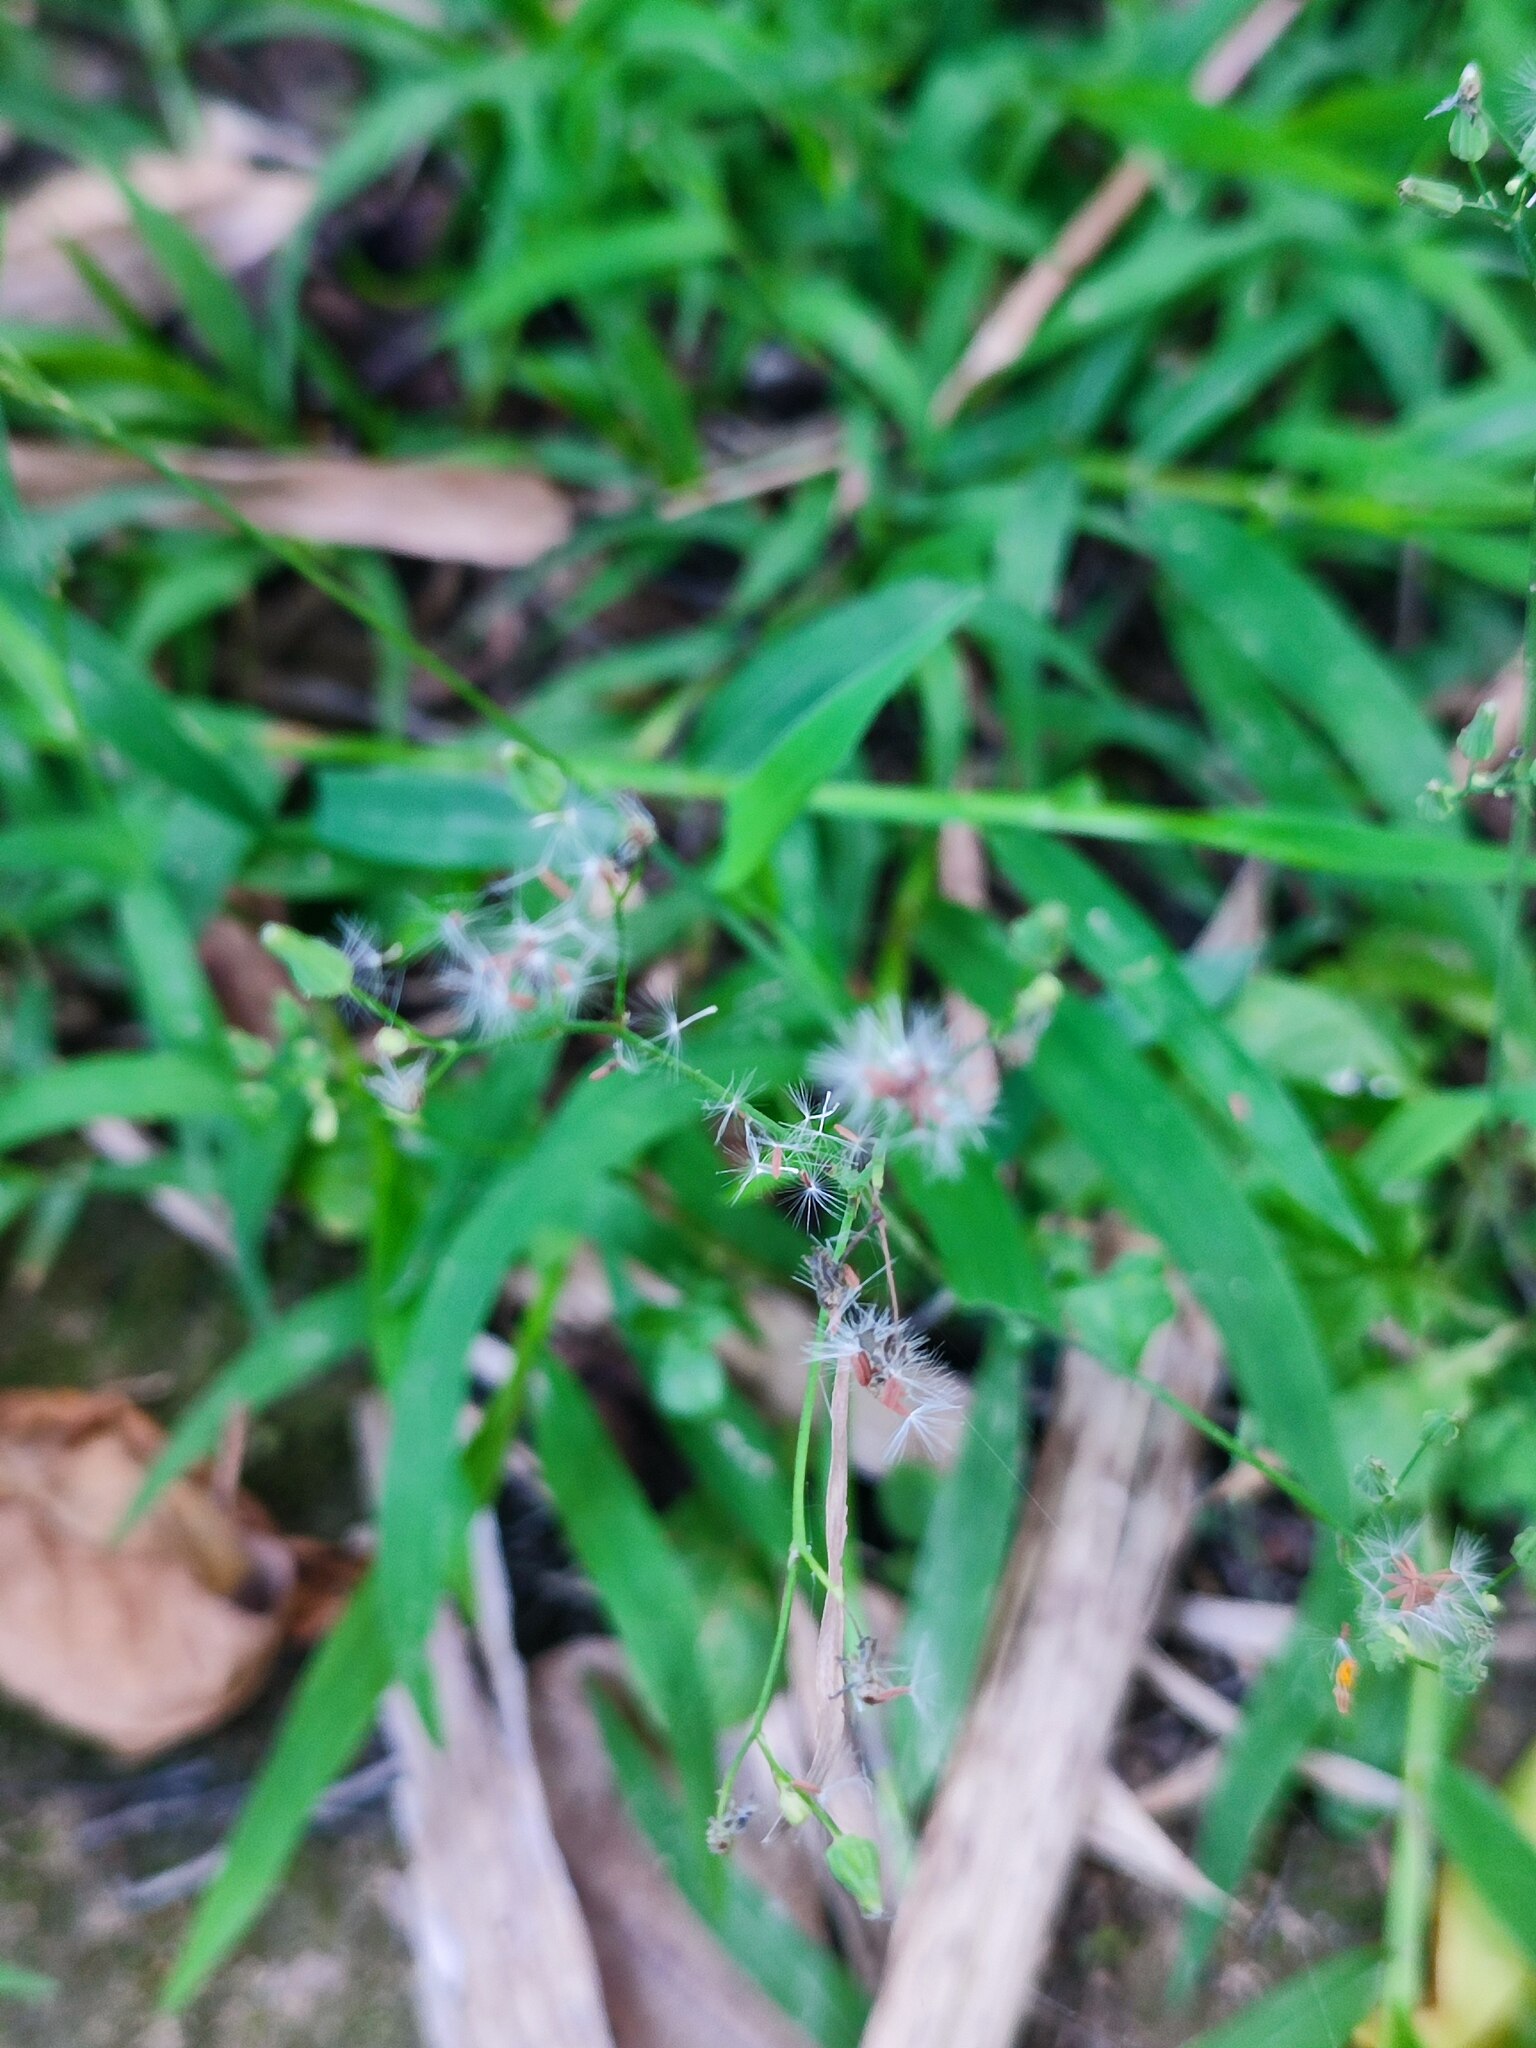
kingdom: Plantae
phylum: Tracheophyta
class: Magnoliopsida
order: Asterales
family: Asteraceae
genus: Youngia
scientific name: Youngia japonica
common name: Oriental false hawksbeard
